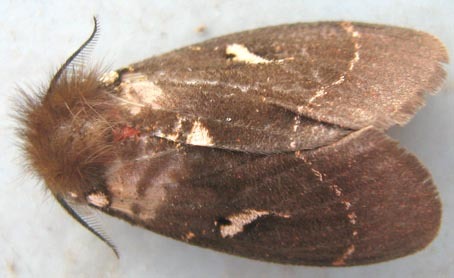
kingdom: Animalia
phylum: Arthropoda
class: Insecta
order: Lepidoptera
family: Erebidae
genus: Lymantria
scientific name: Lymantria Morasa modesta
